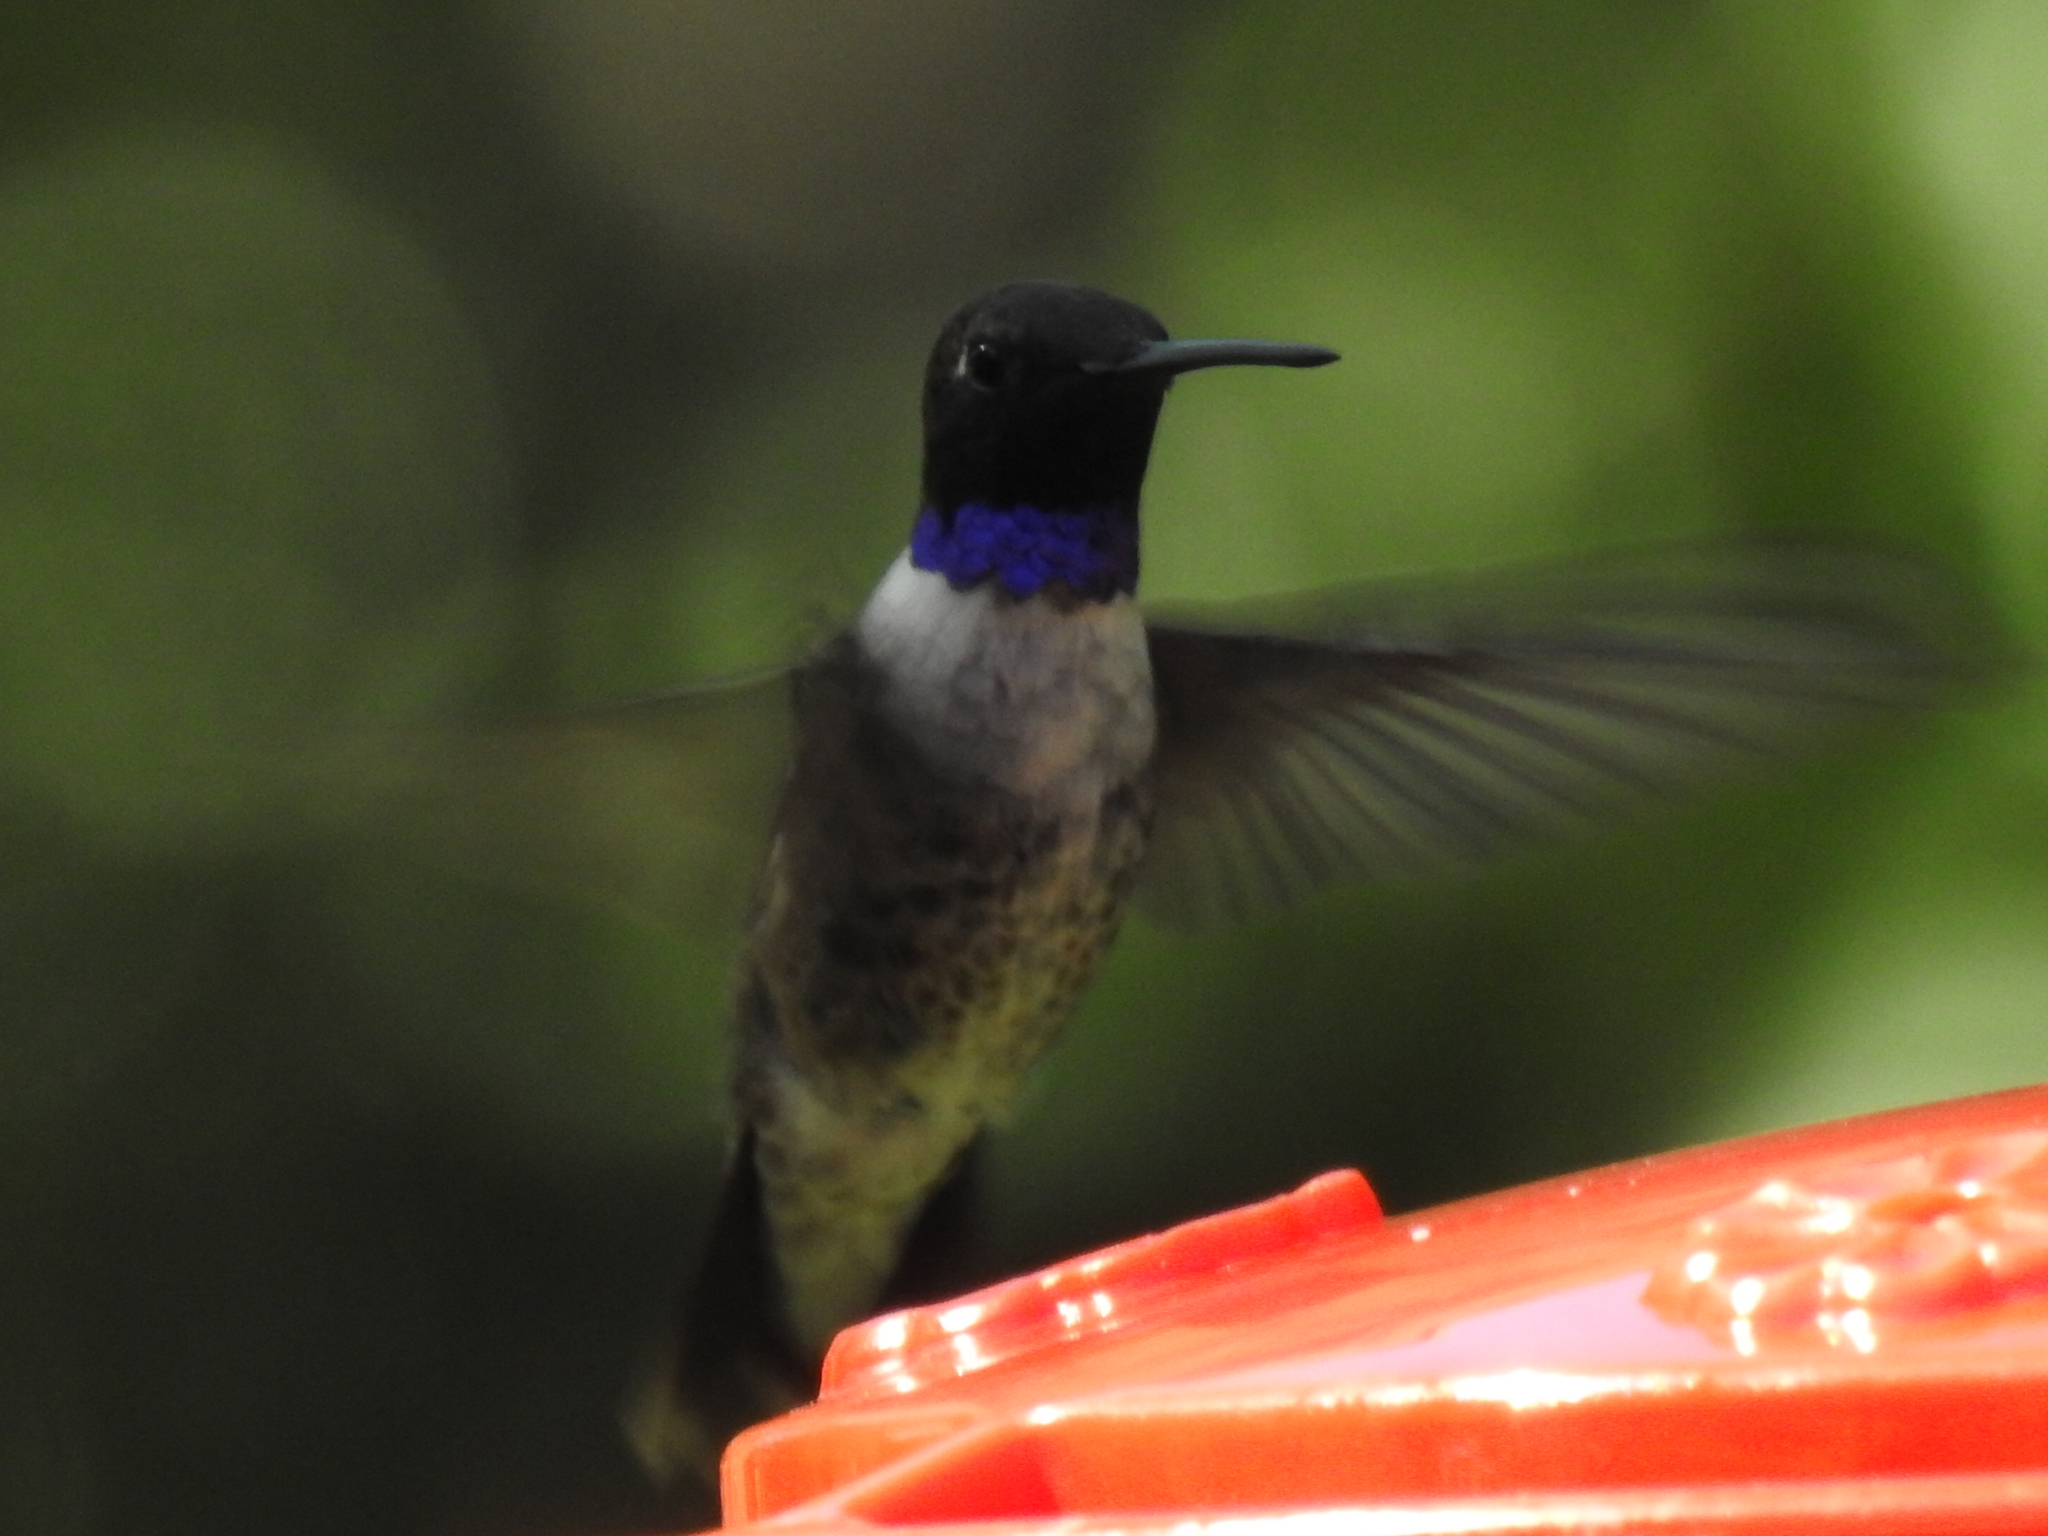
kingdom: Animalia
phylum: Chordata
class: Aves
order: Apodiformes
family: Trochilidae
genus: Archilochus
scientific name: Archilochus alexandri
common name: Black-chinned hummingbird
